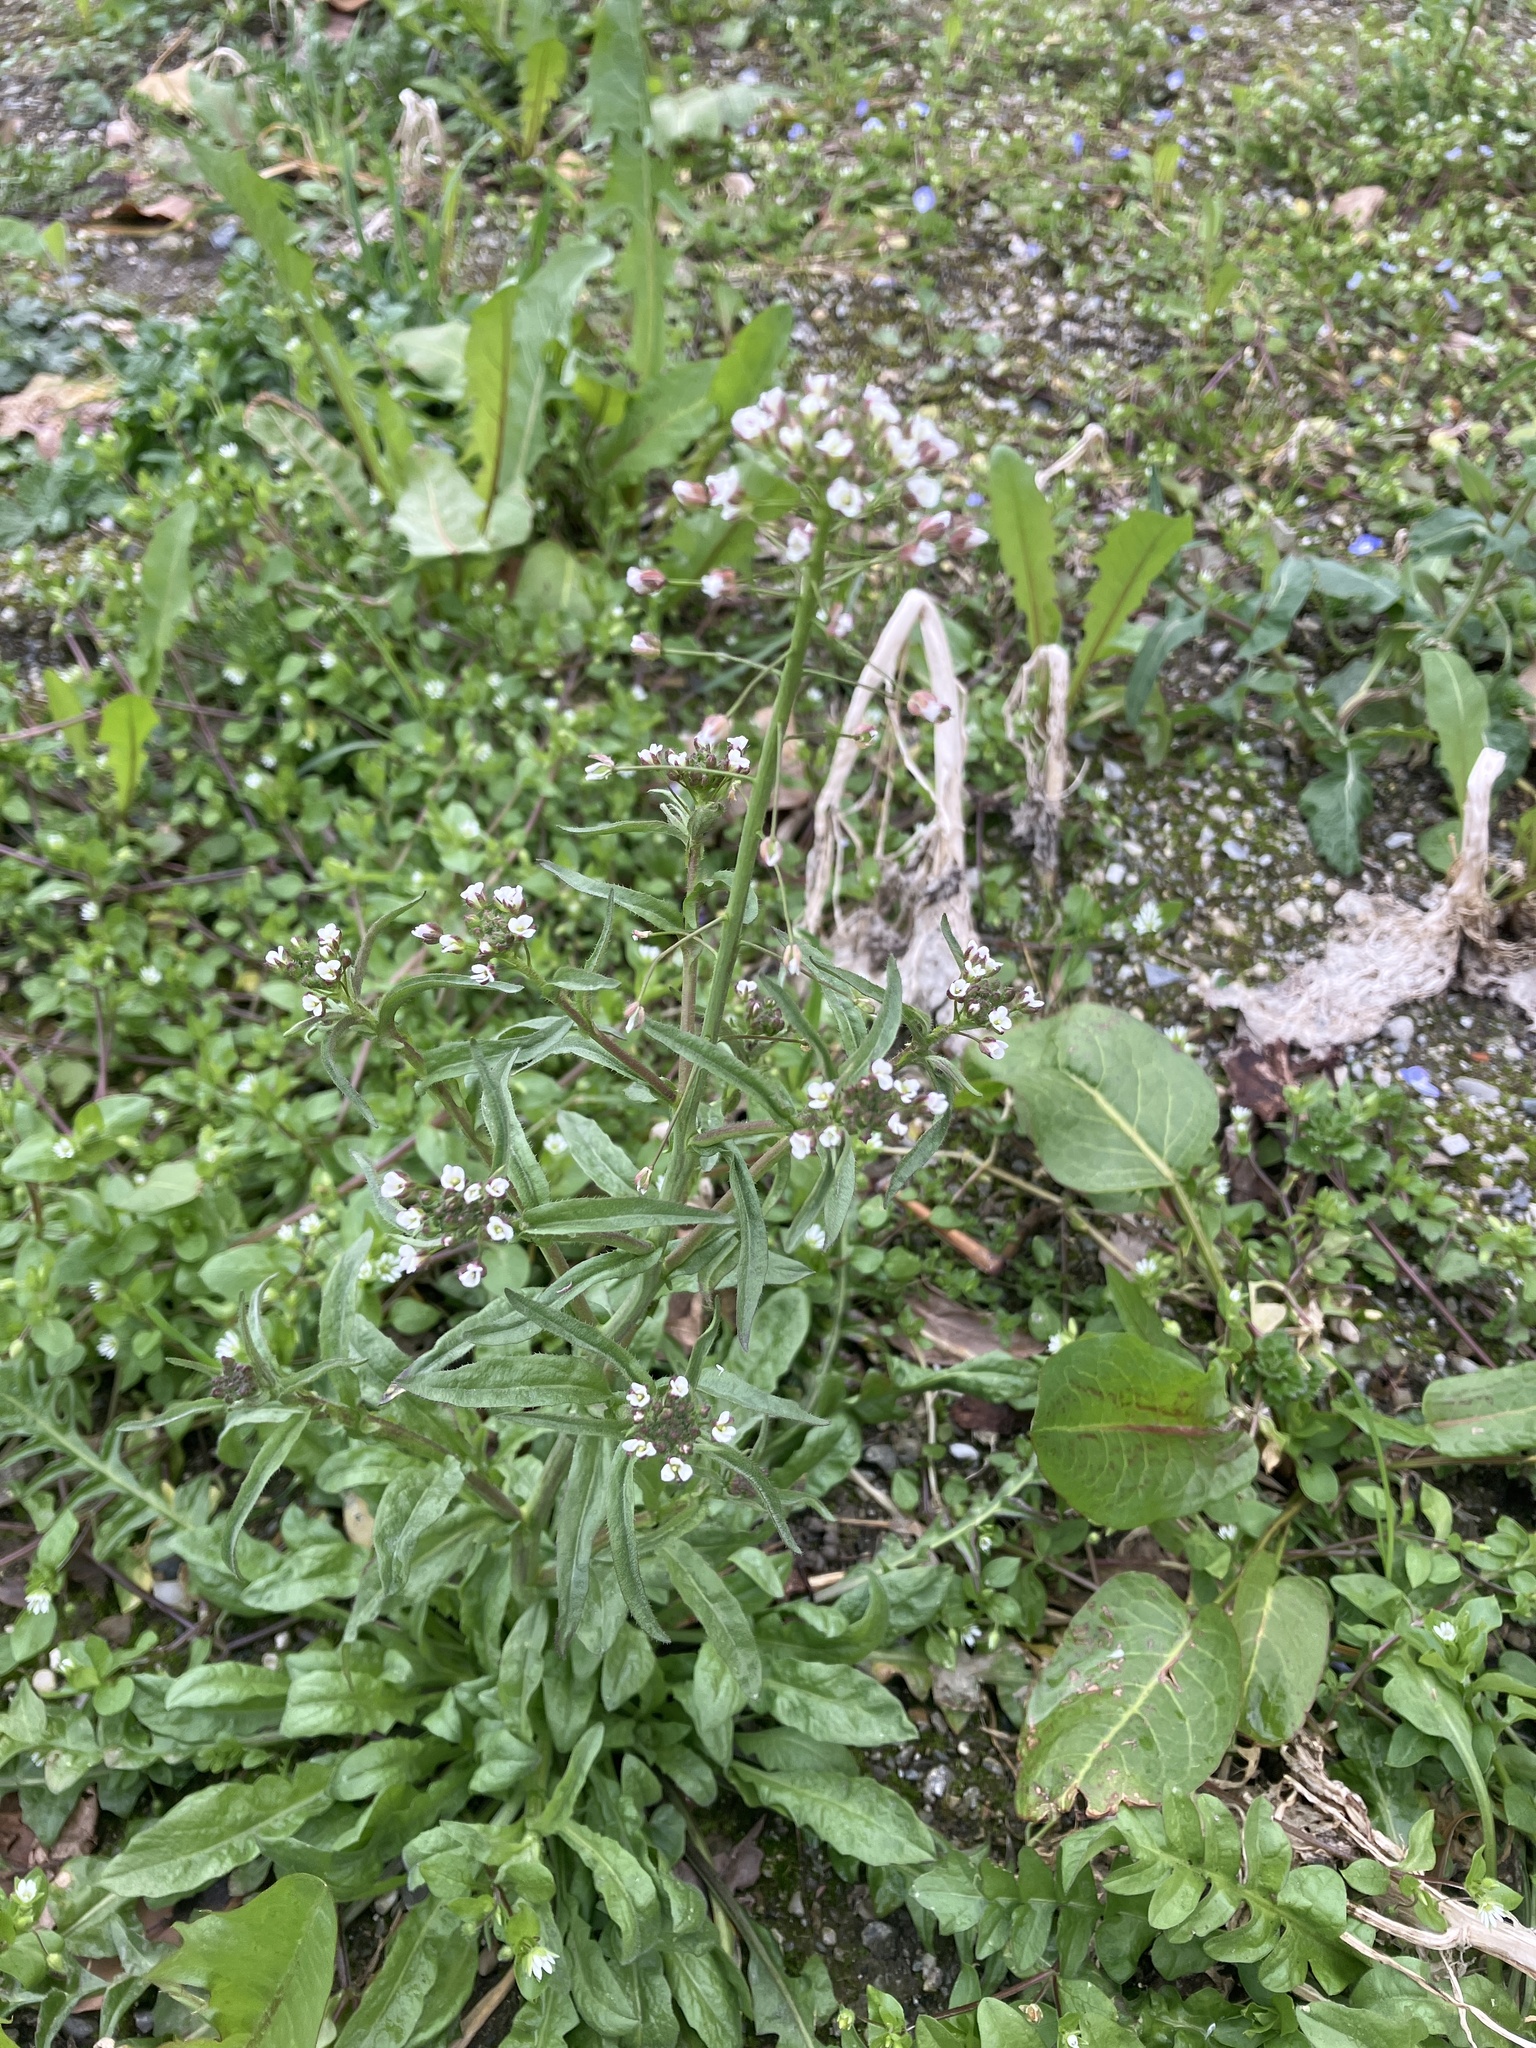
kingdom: Plantae
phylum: Tracheophyta
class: Magnoliopsida
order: Brassicales
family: Brassicaceae
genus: Capsella
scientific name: Capsella bursa-pastoris
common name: Shepherd's purse
